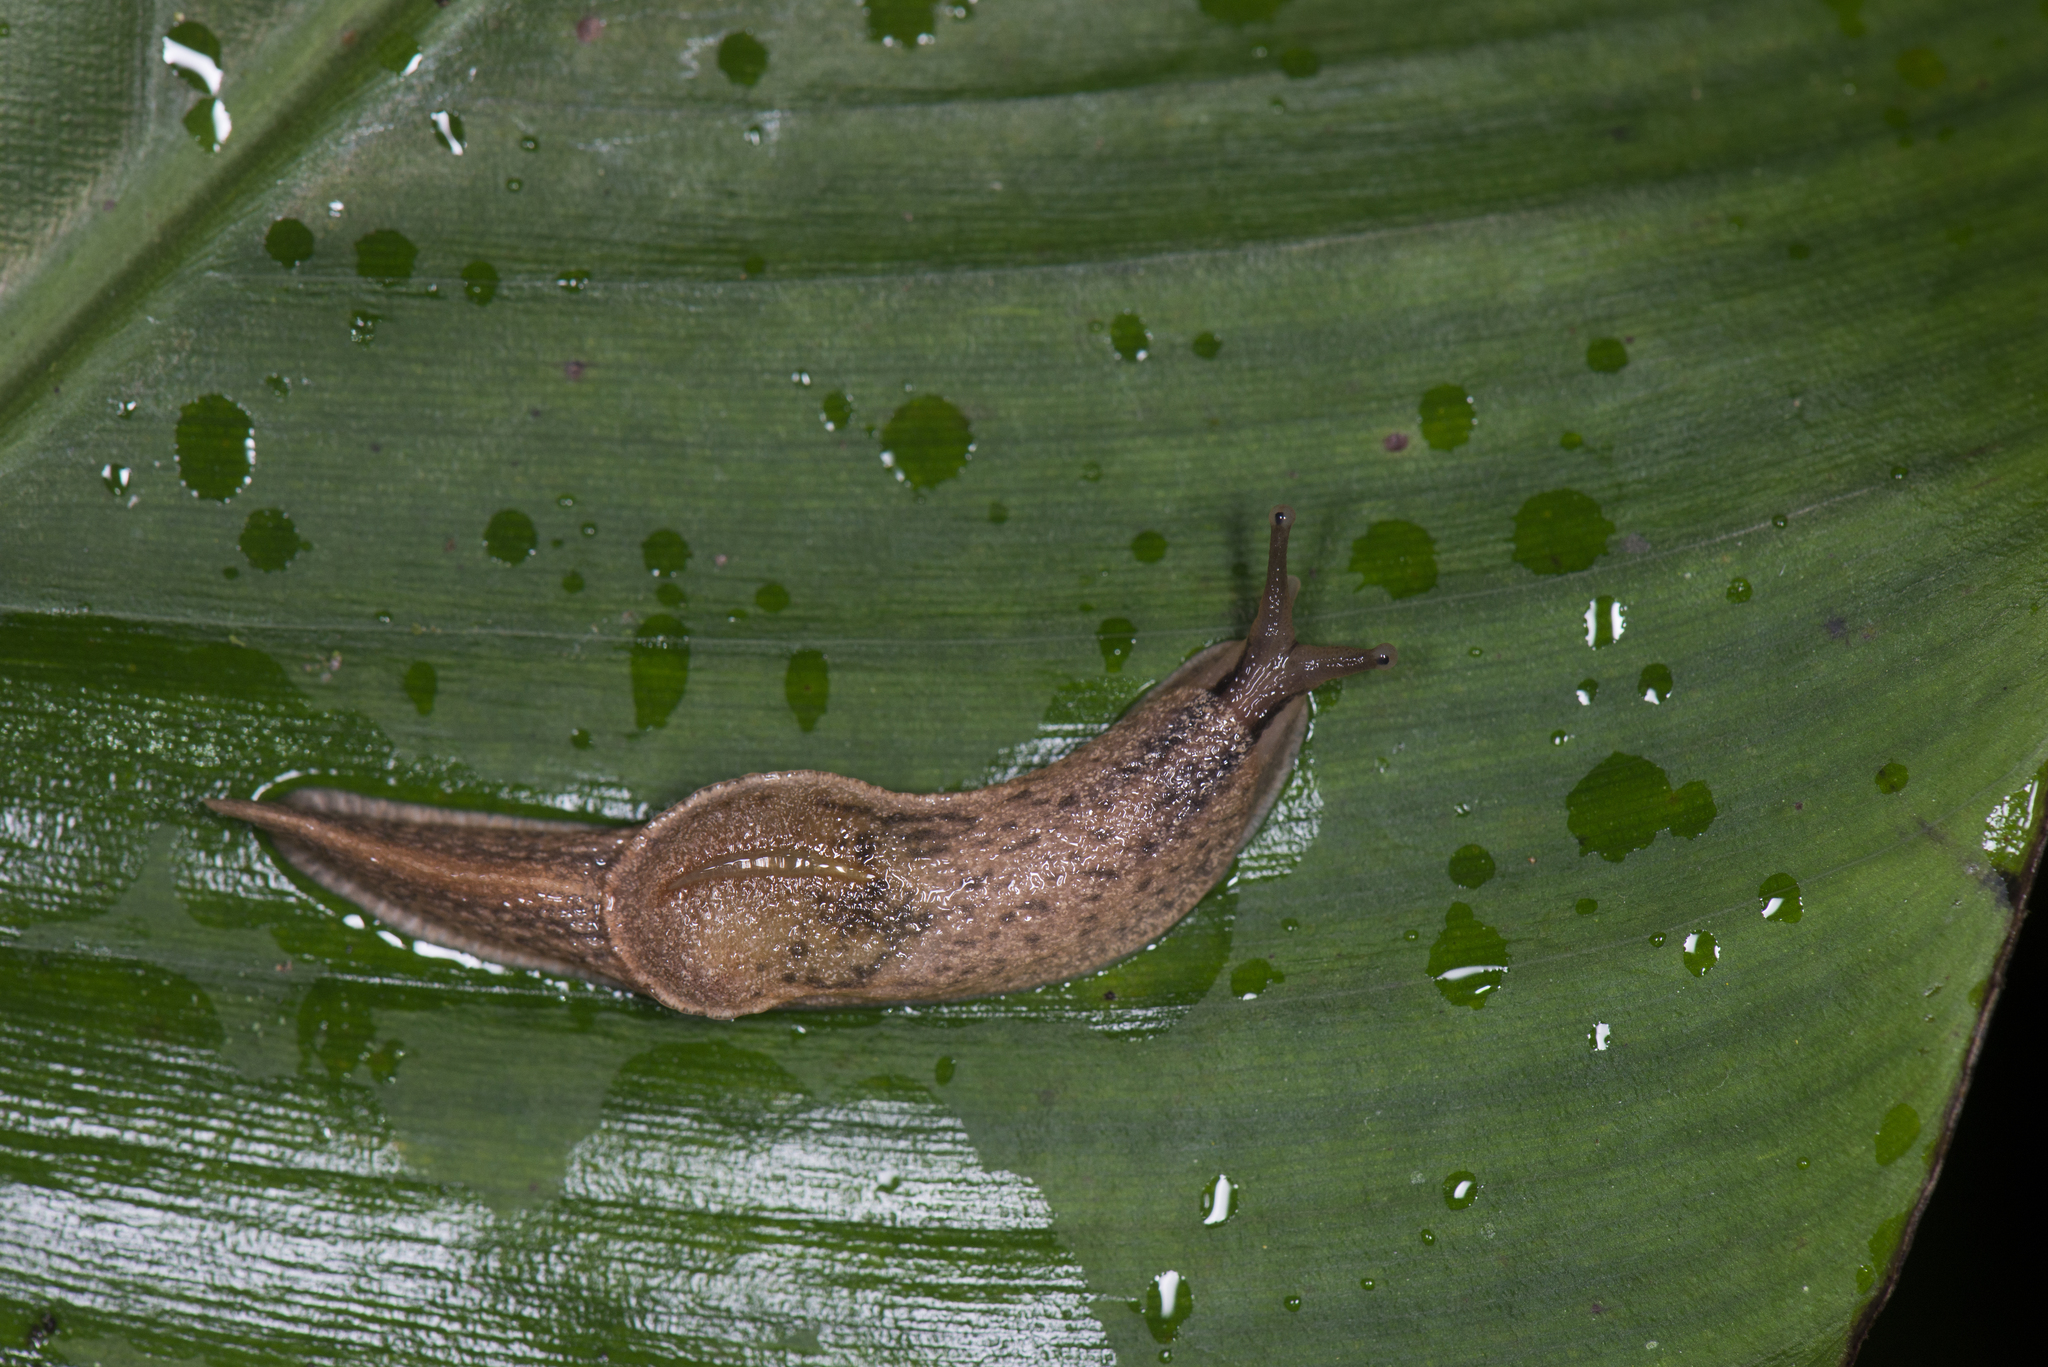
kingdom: Animalia
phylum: Mollusca
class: Gastropoda
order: Stylommatophora
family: Ariophantidae
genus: Parmarion
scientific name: Parmarion martensi
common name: Semi-slug
